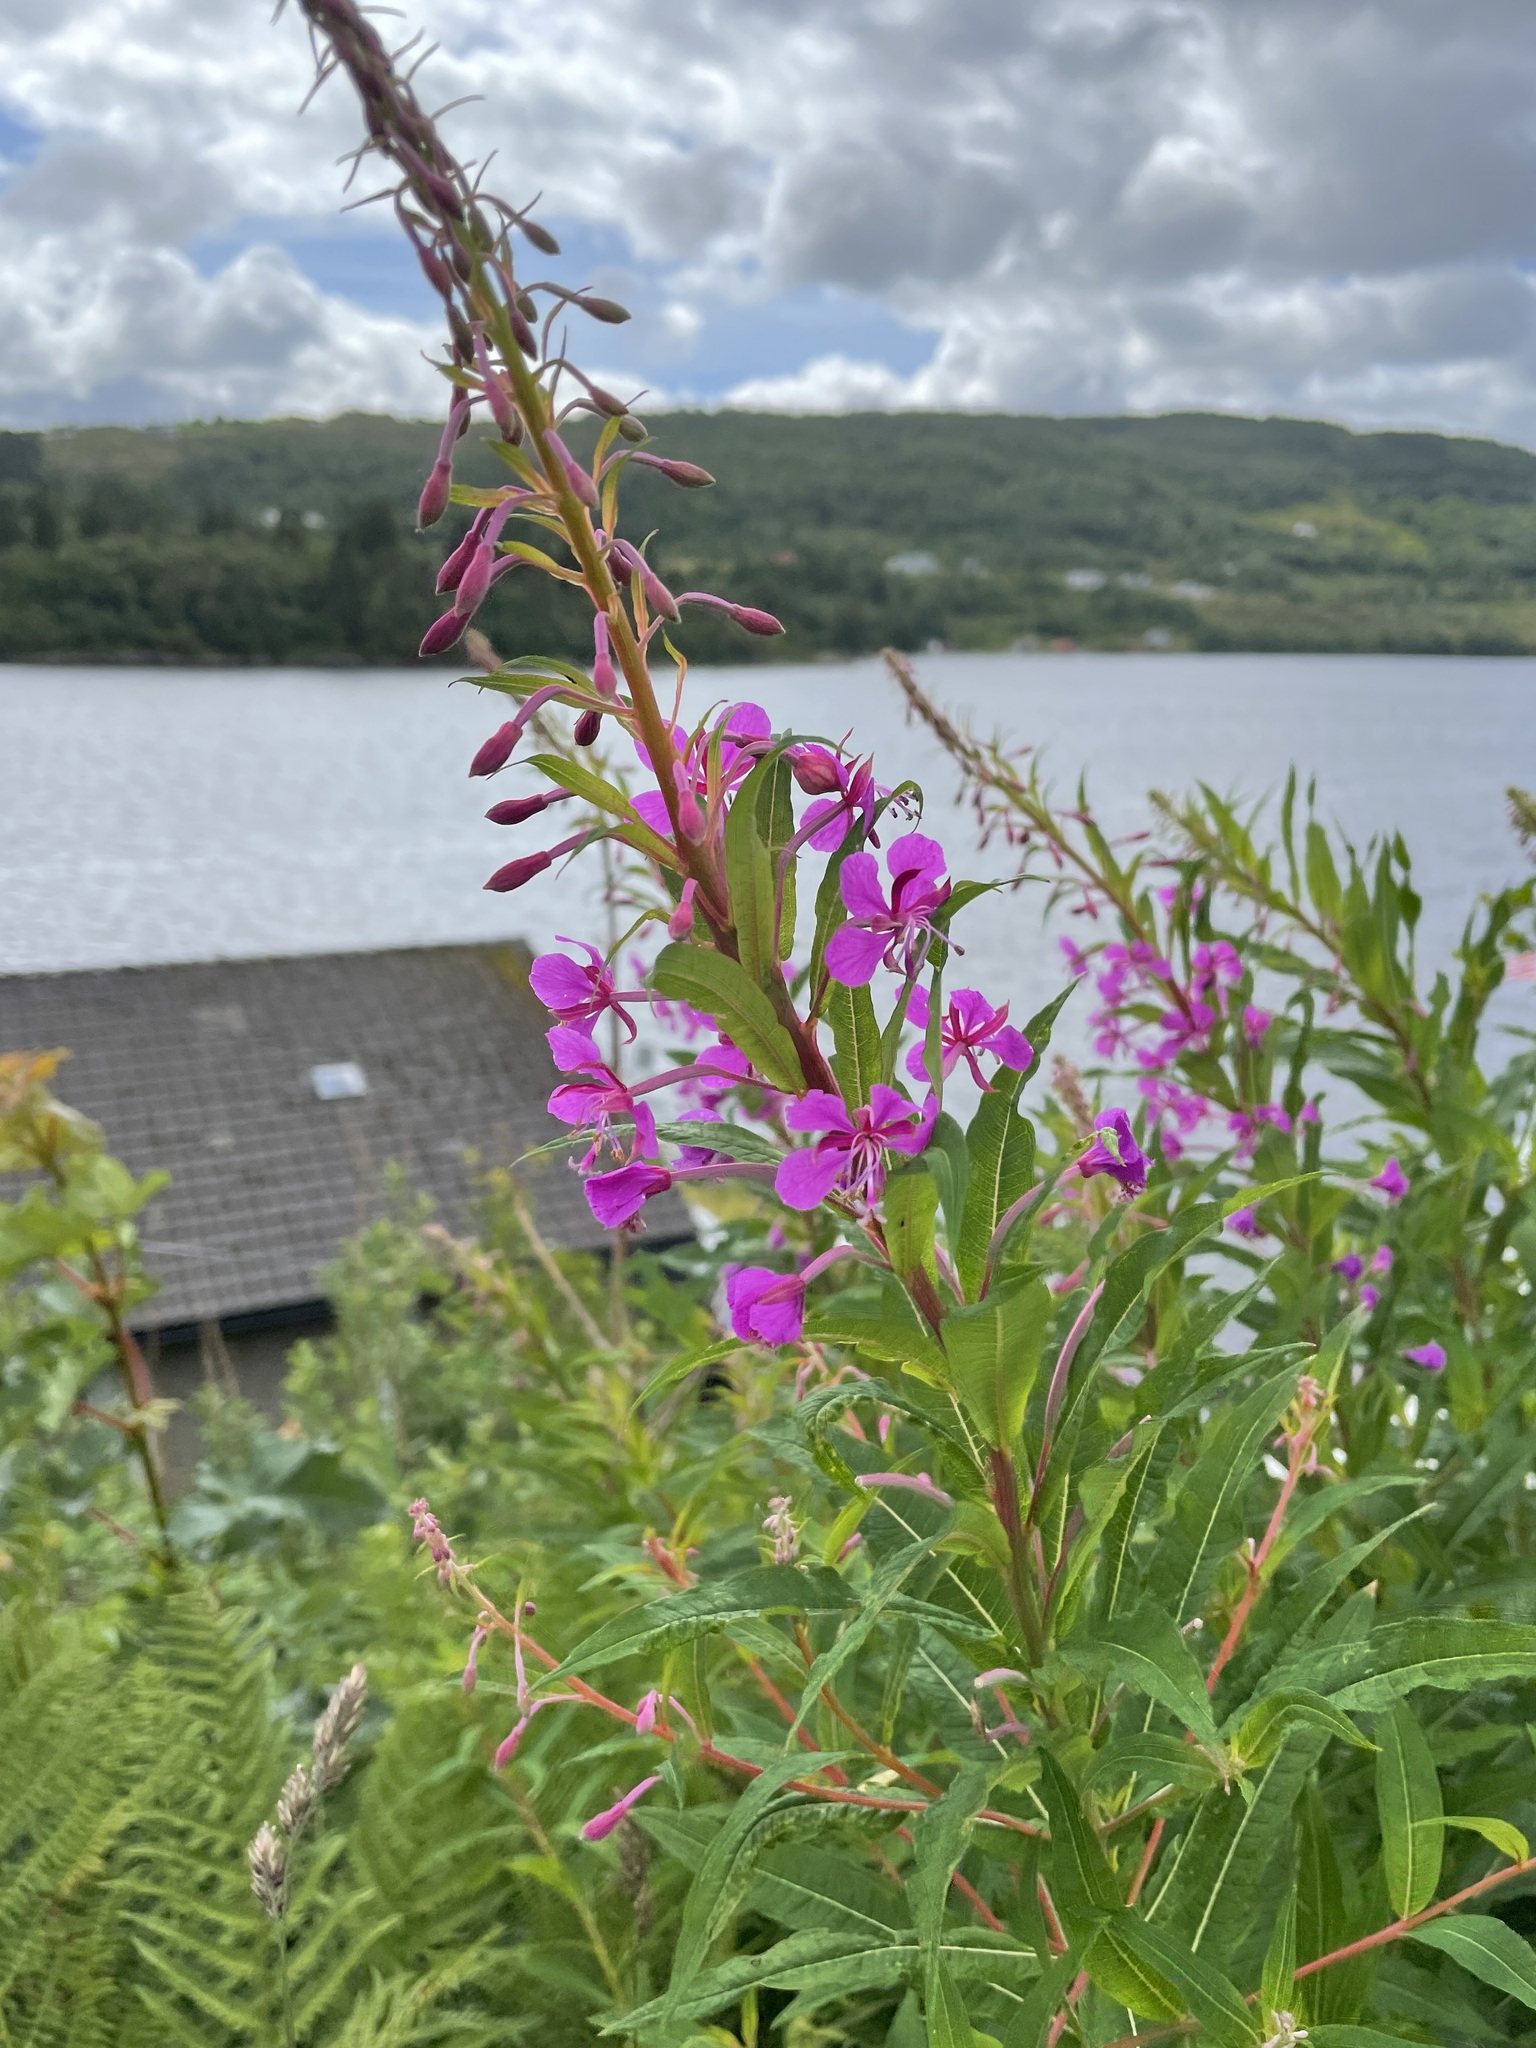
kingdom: Plantae
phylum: Tracheophyta
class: Magnoliopsida
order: Myrtales
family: Onagraceae
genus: Chamaenerion
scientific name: Chamaenerion angustifolium
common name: Fireweed
